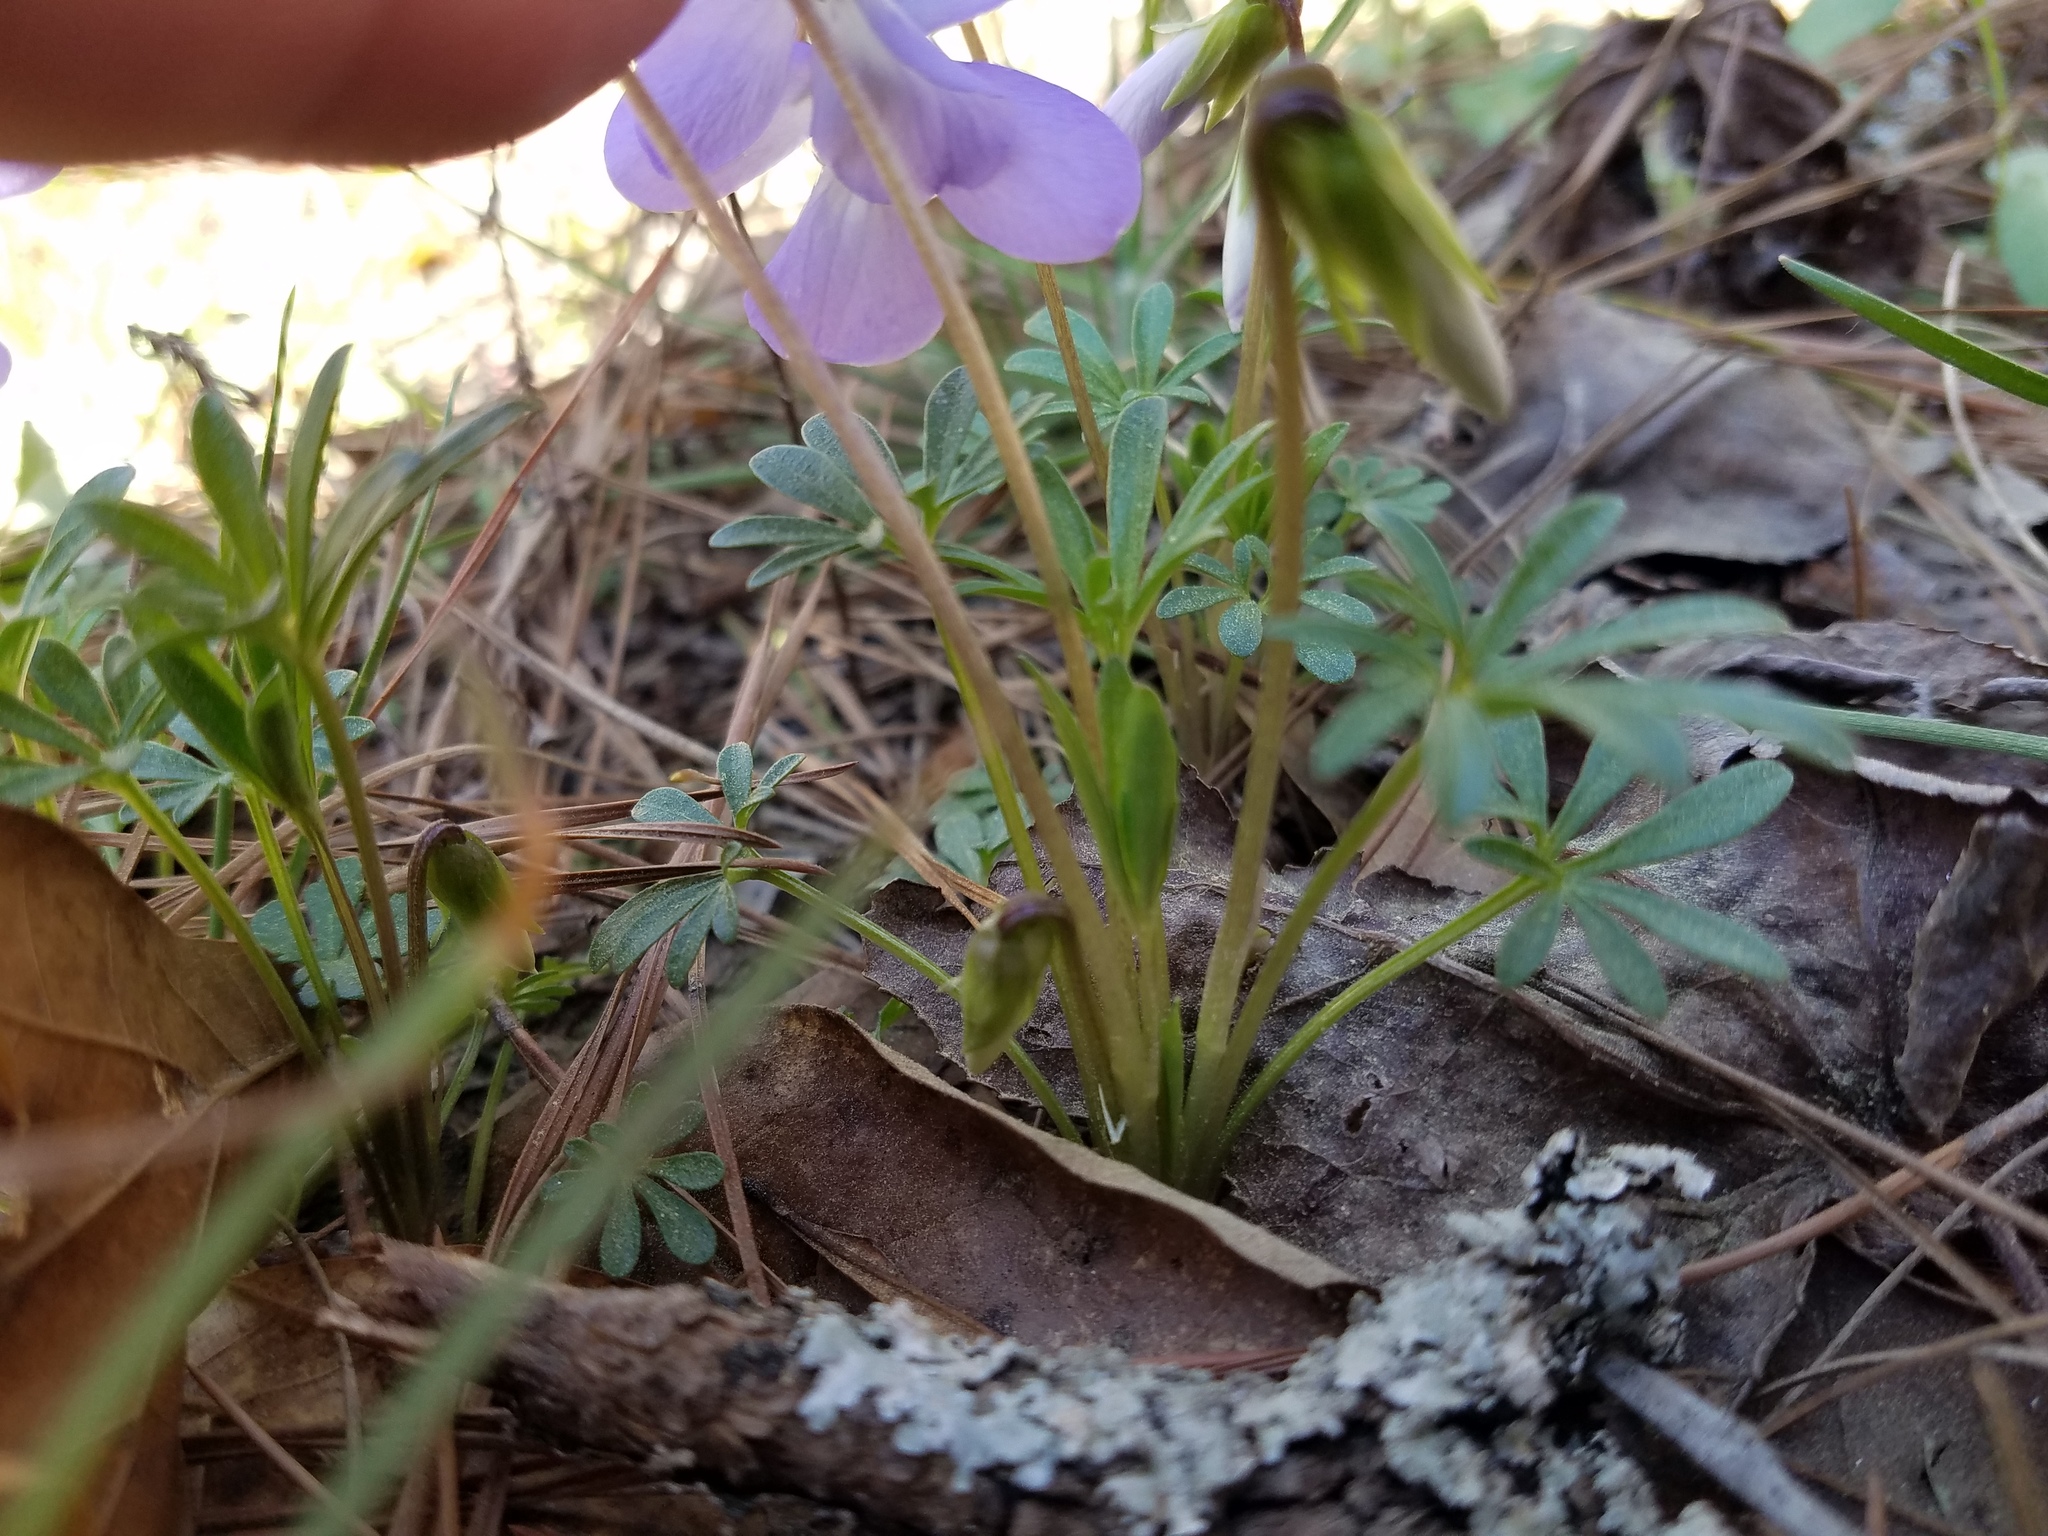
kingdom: Plantae
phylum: Tracheophyta
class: Magnoliopsida
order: Malpighiales
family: Violaceae
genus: Viola
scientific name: Viola pedata
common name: Pansy violet
